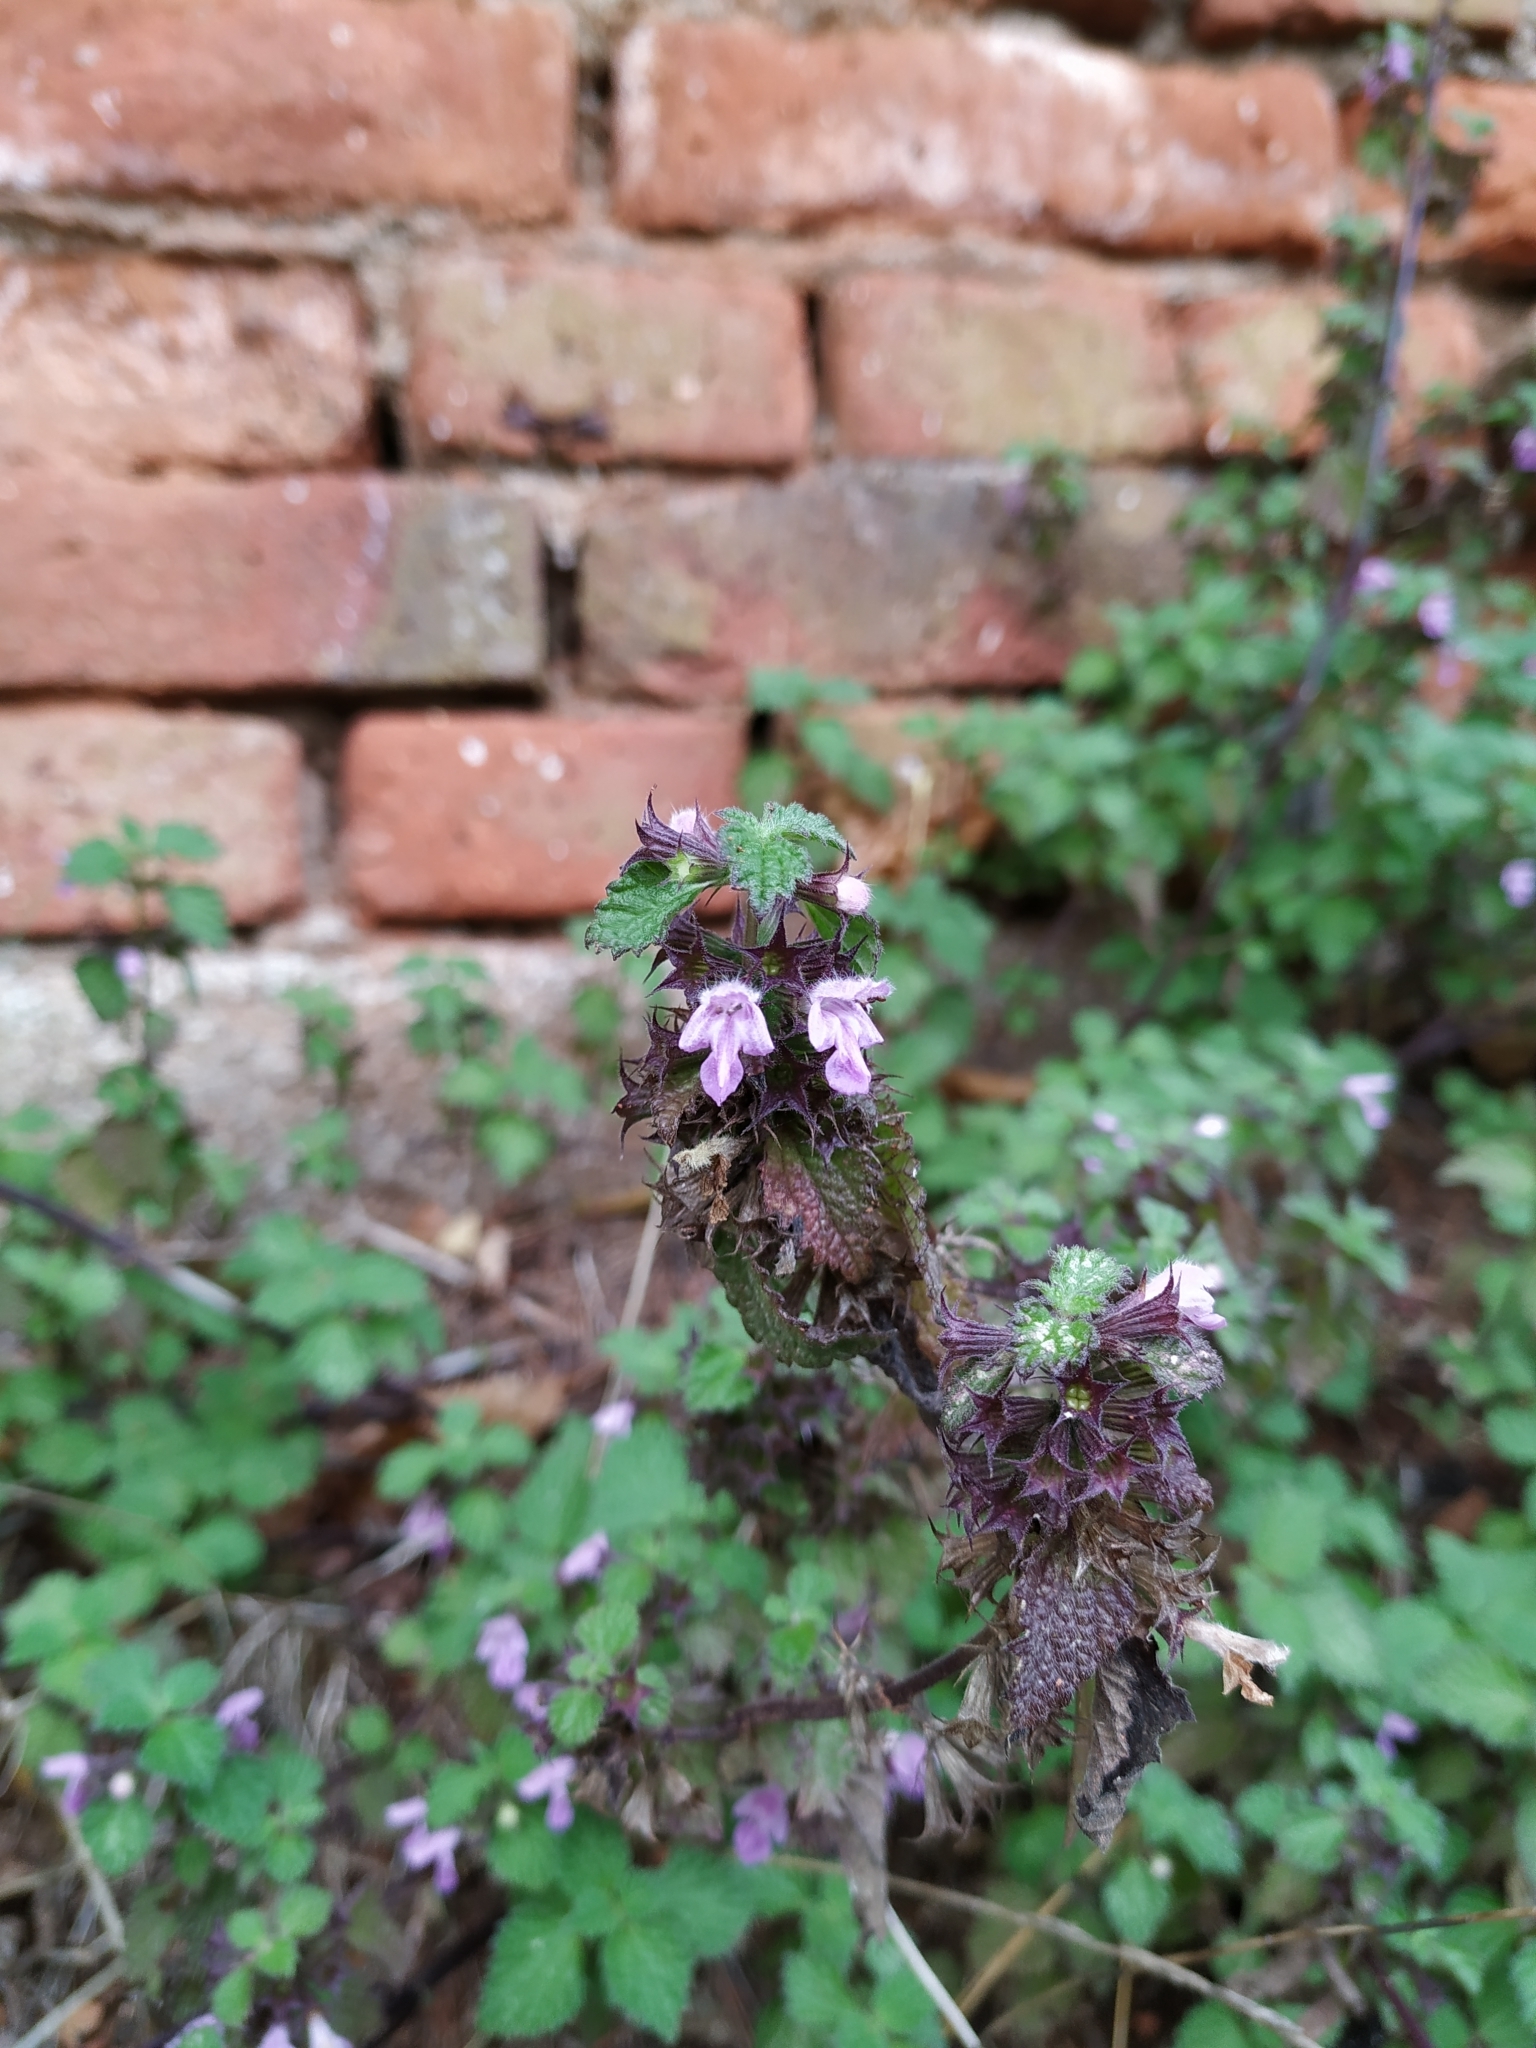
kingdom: Plantae
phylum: Tracheophyta
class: Magnoliopsida
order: Lamiales
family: Lamiaceae
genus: Ballota
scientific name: Ballota nigra
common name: Black horehound
